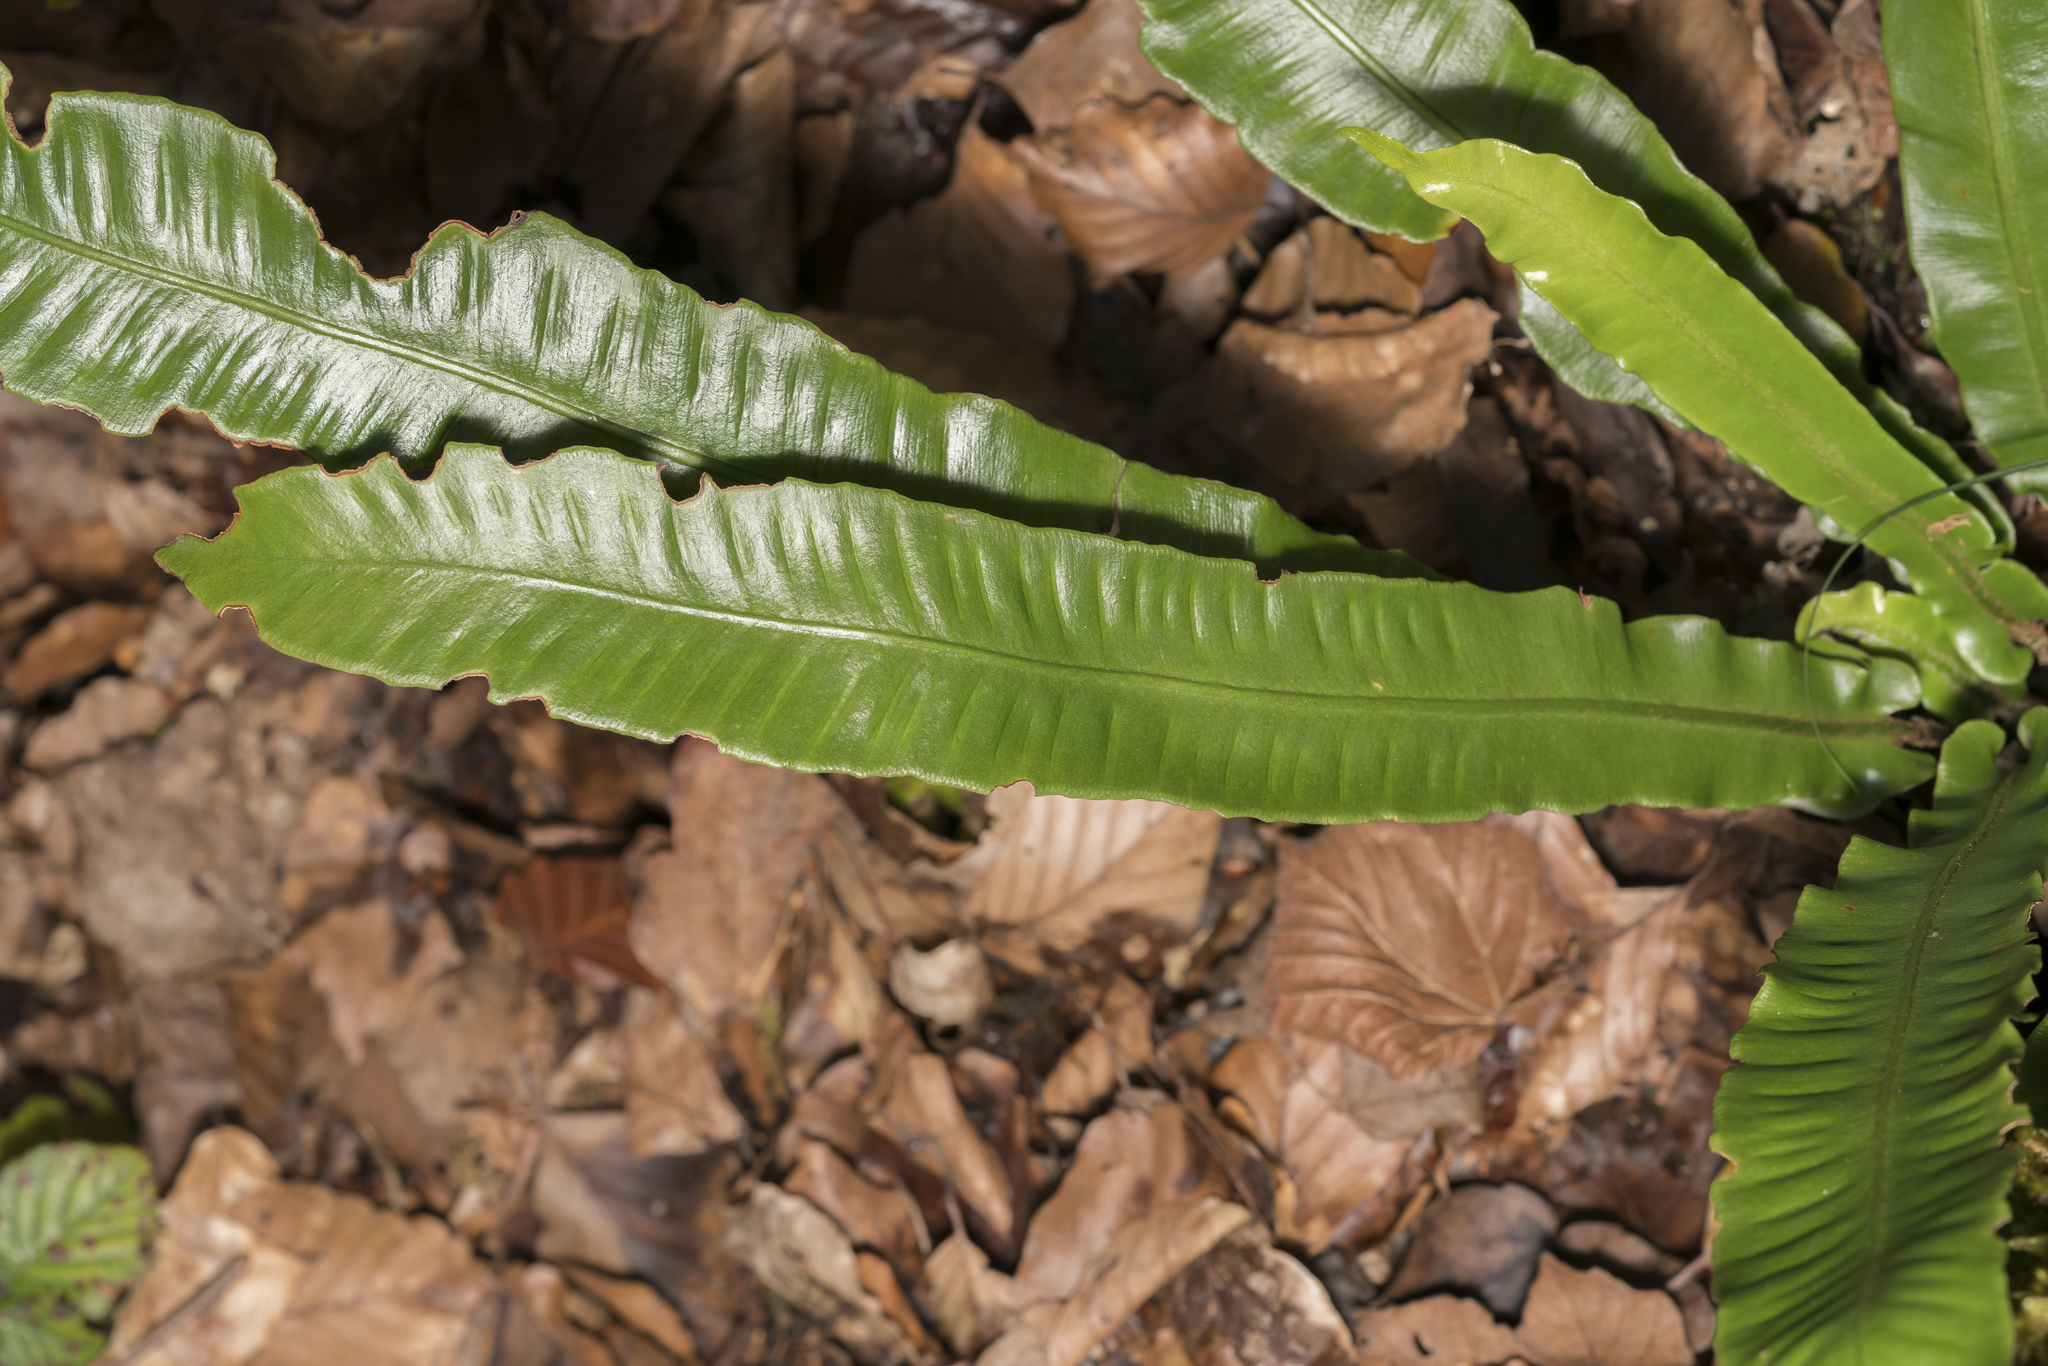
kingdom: Plantae
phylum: Tracheophyta
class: Polypodiopsida
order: Polypodiales
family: Aspleniaceae
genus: Asplenium
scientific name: Asplenium scolopendrium
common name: Hart's-tongue fern
